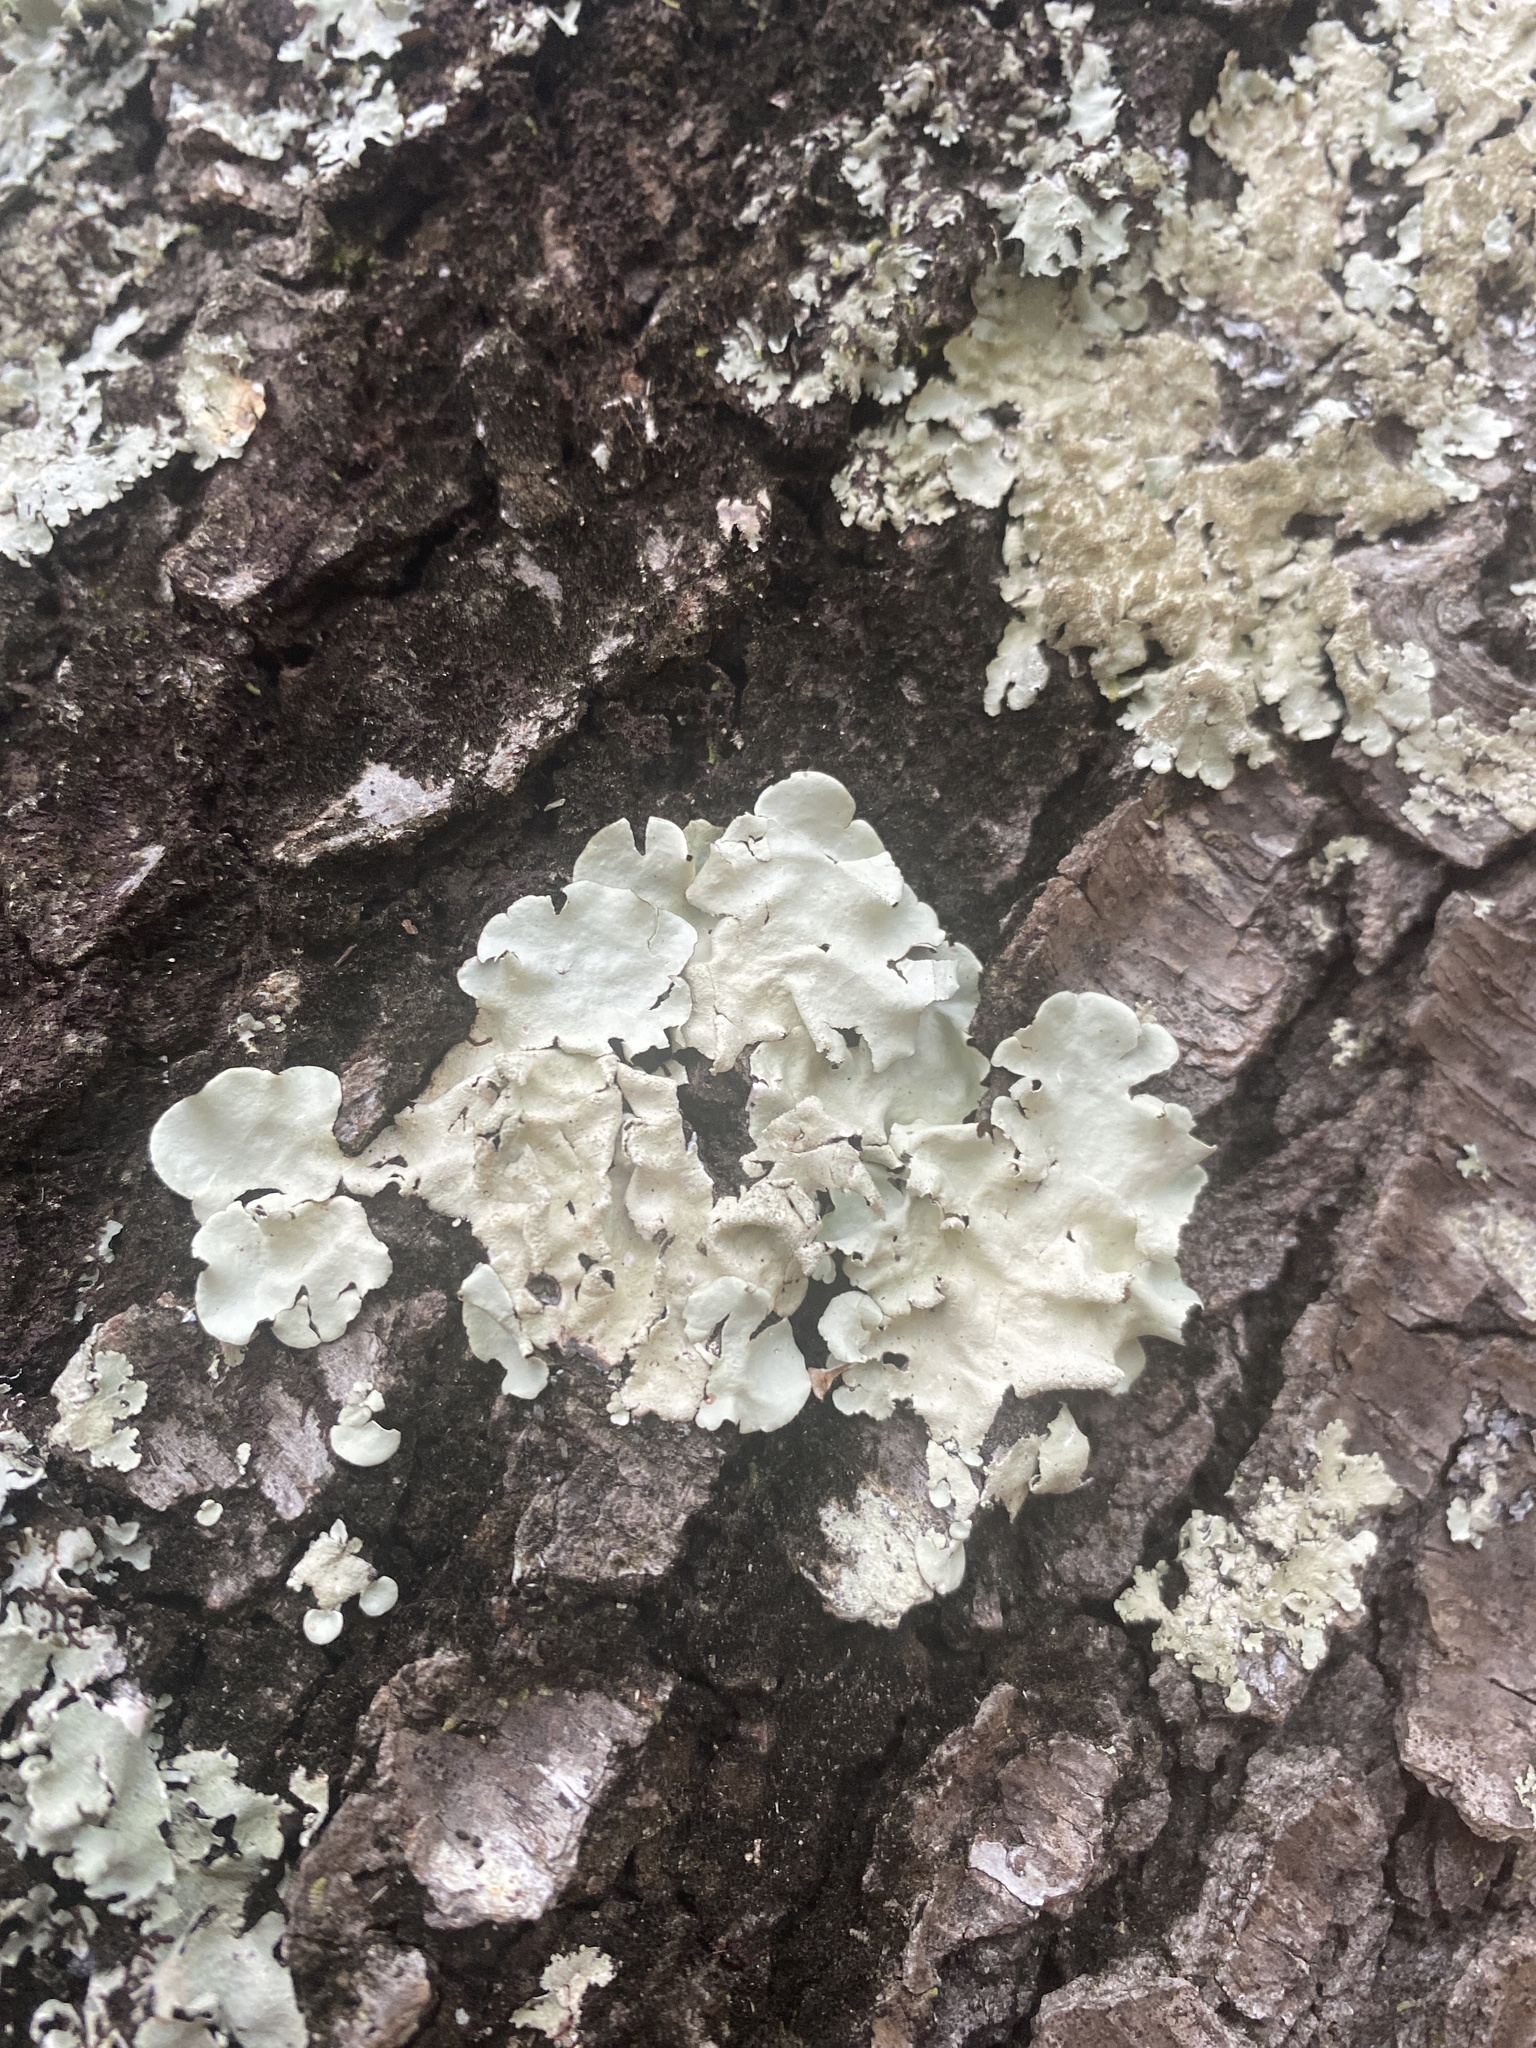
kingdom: Fungi
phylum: Ascomycota
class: Lecanoromycetes
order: Lecanorales
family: Parmeliaceae
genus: Parmotrema
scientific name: Parmotrema tinctorum
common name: Old gray ruffles
